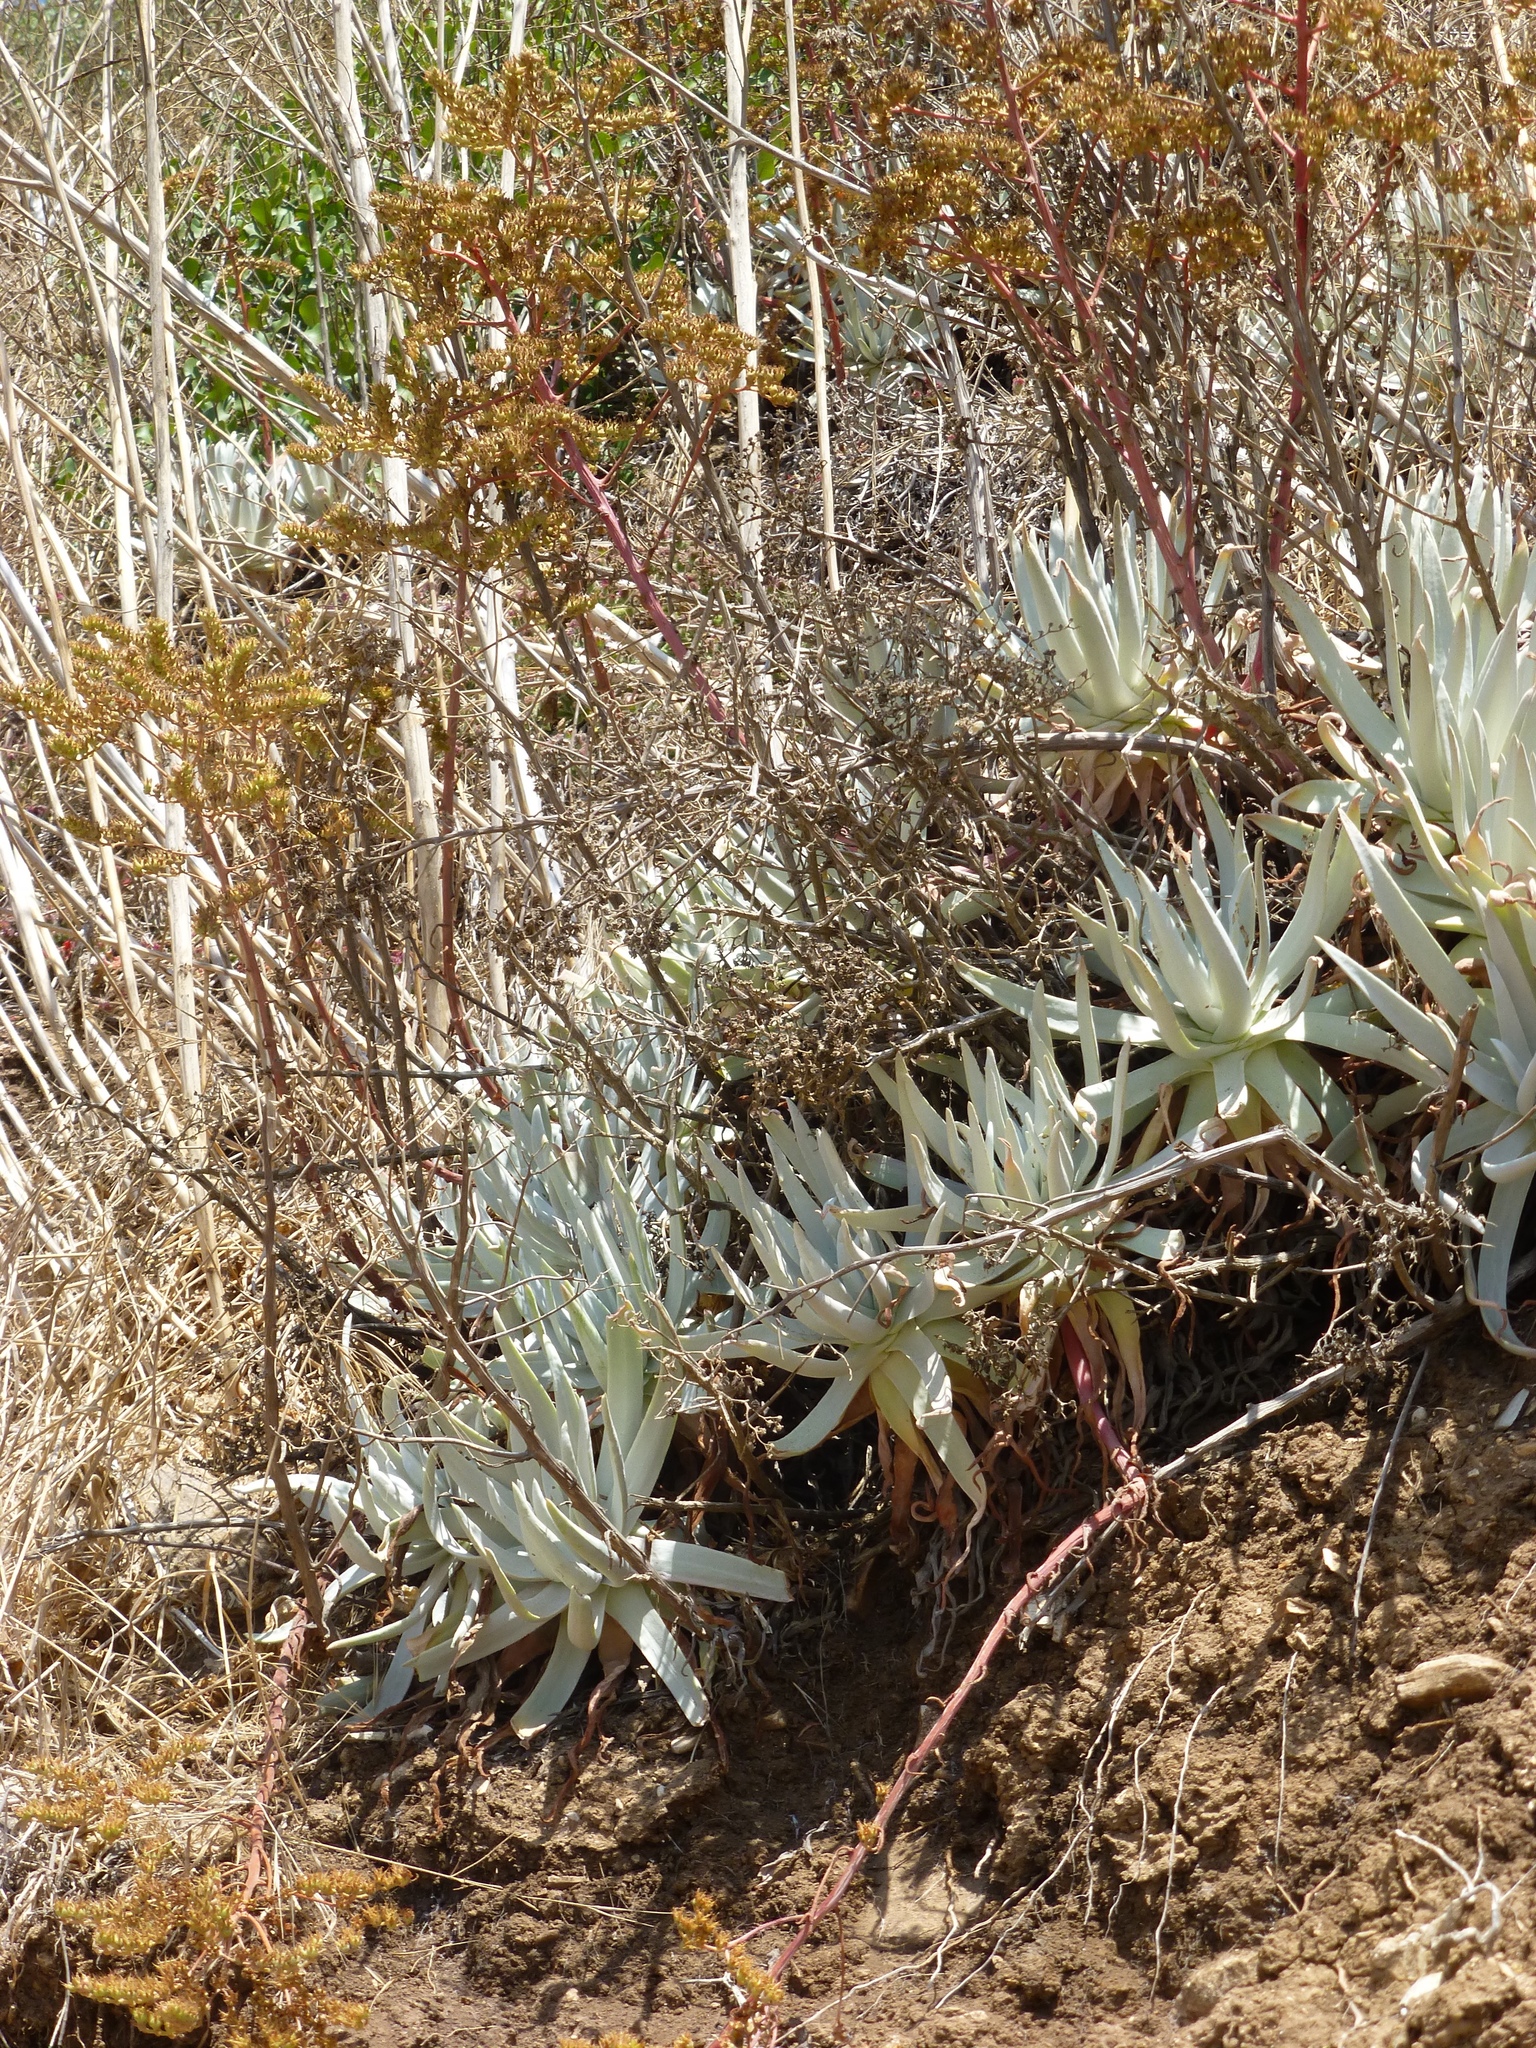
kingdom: Plantae
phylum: Tracheophyta
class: Magnoliopsida
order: Saxifragales
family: Crassulaceae
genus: Dudleya
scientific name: Dudleya virens
